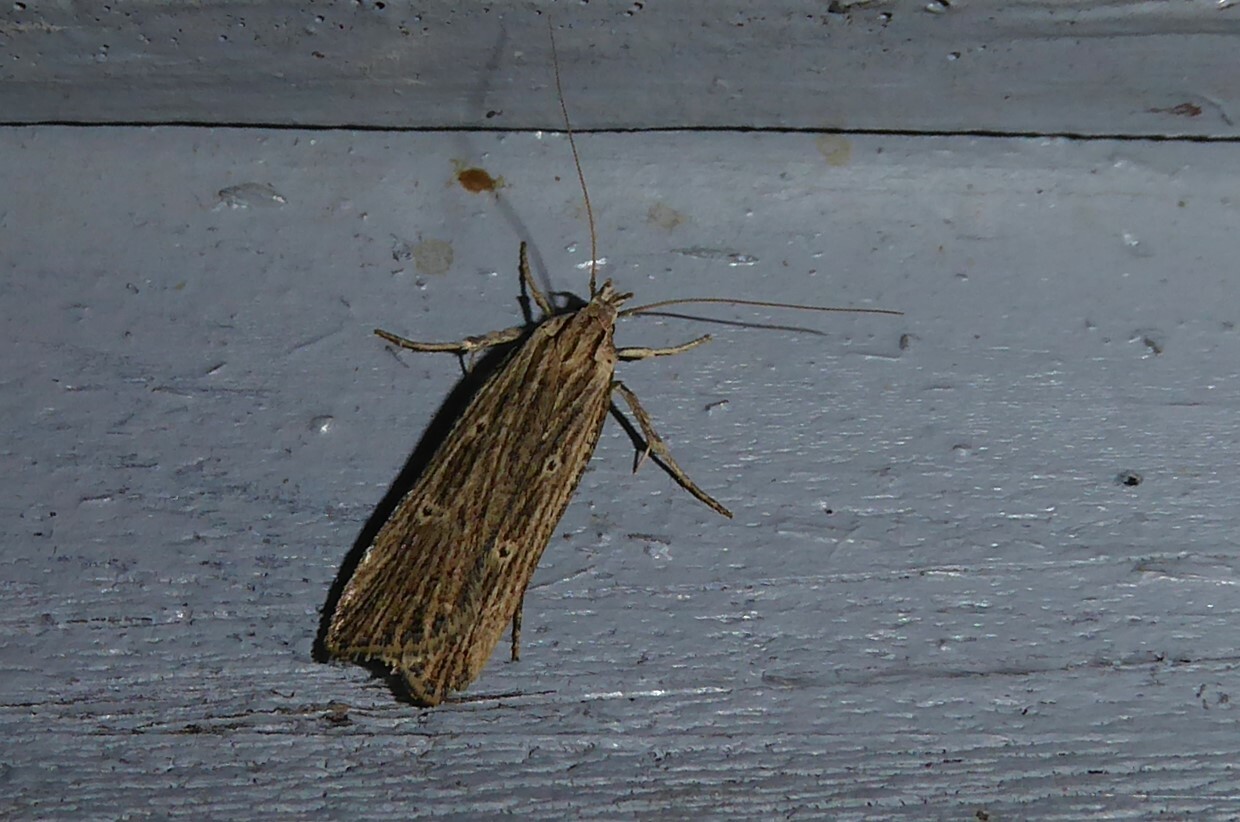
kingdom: Animalia
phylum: Arthropoda
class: Insecta
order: Lepidoptera
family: Gelechiidae
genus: Anisoplaca
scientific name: Anisoplaca ptyoptera
